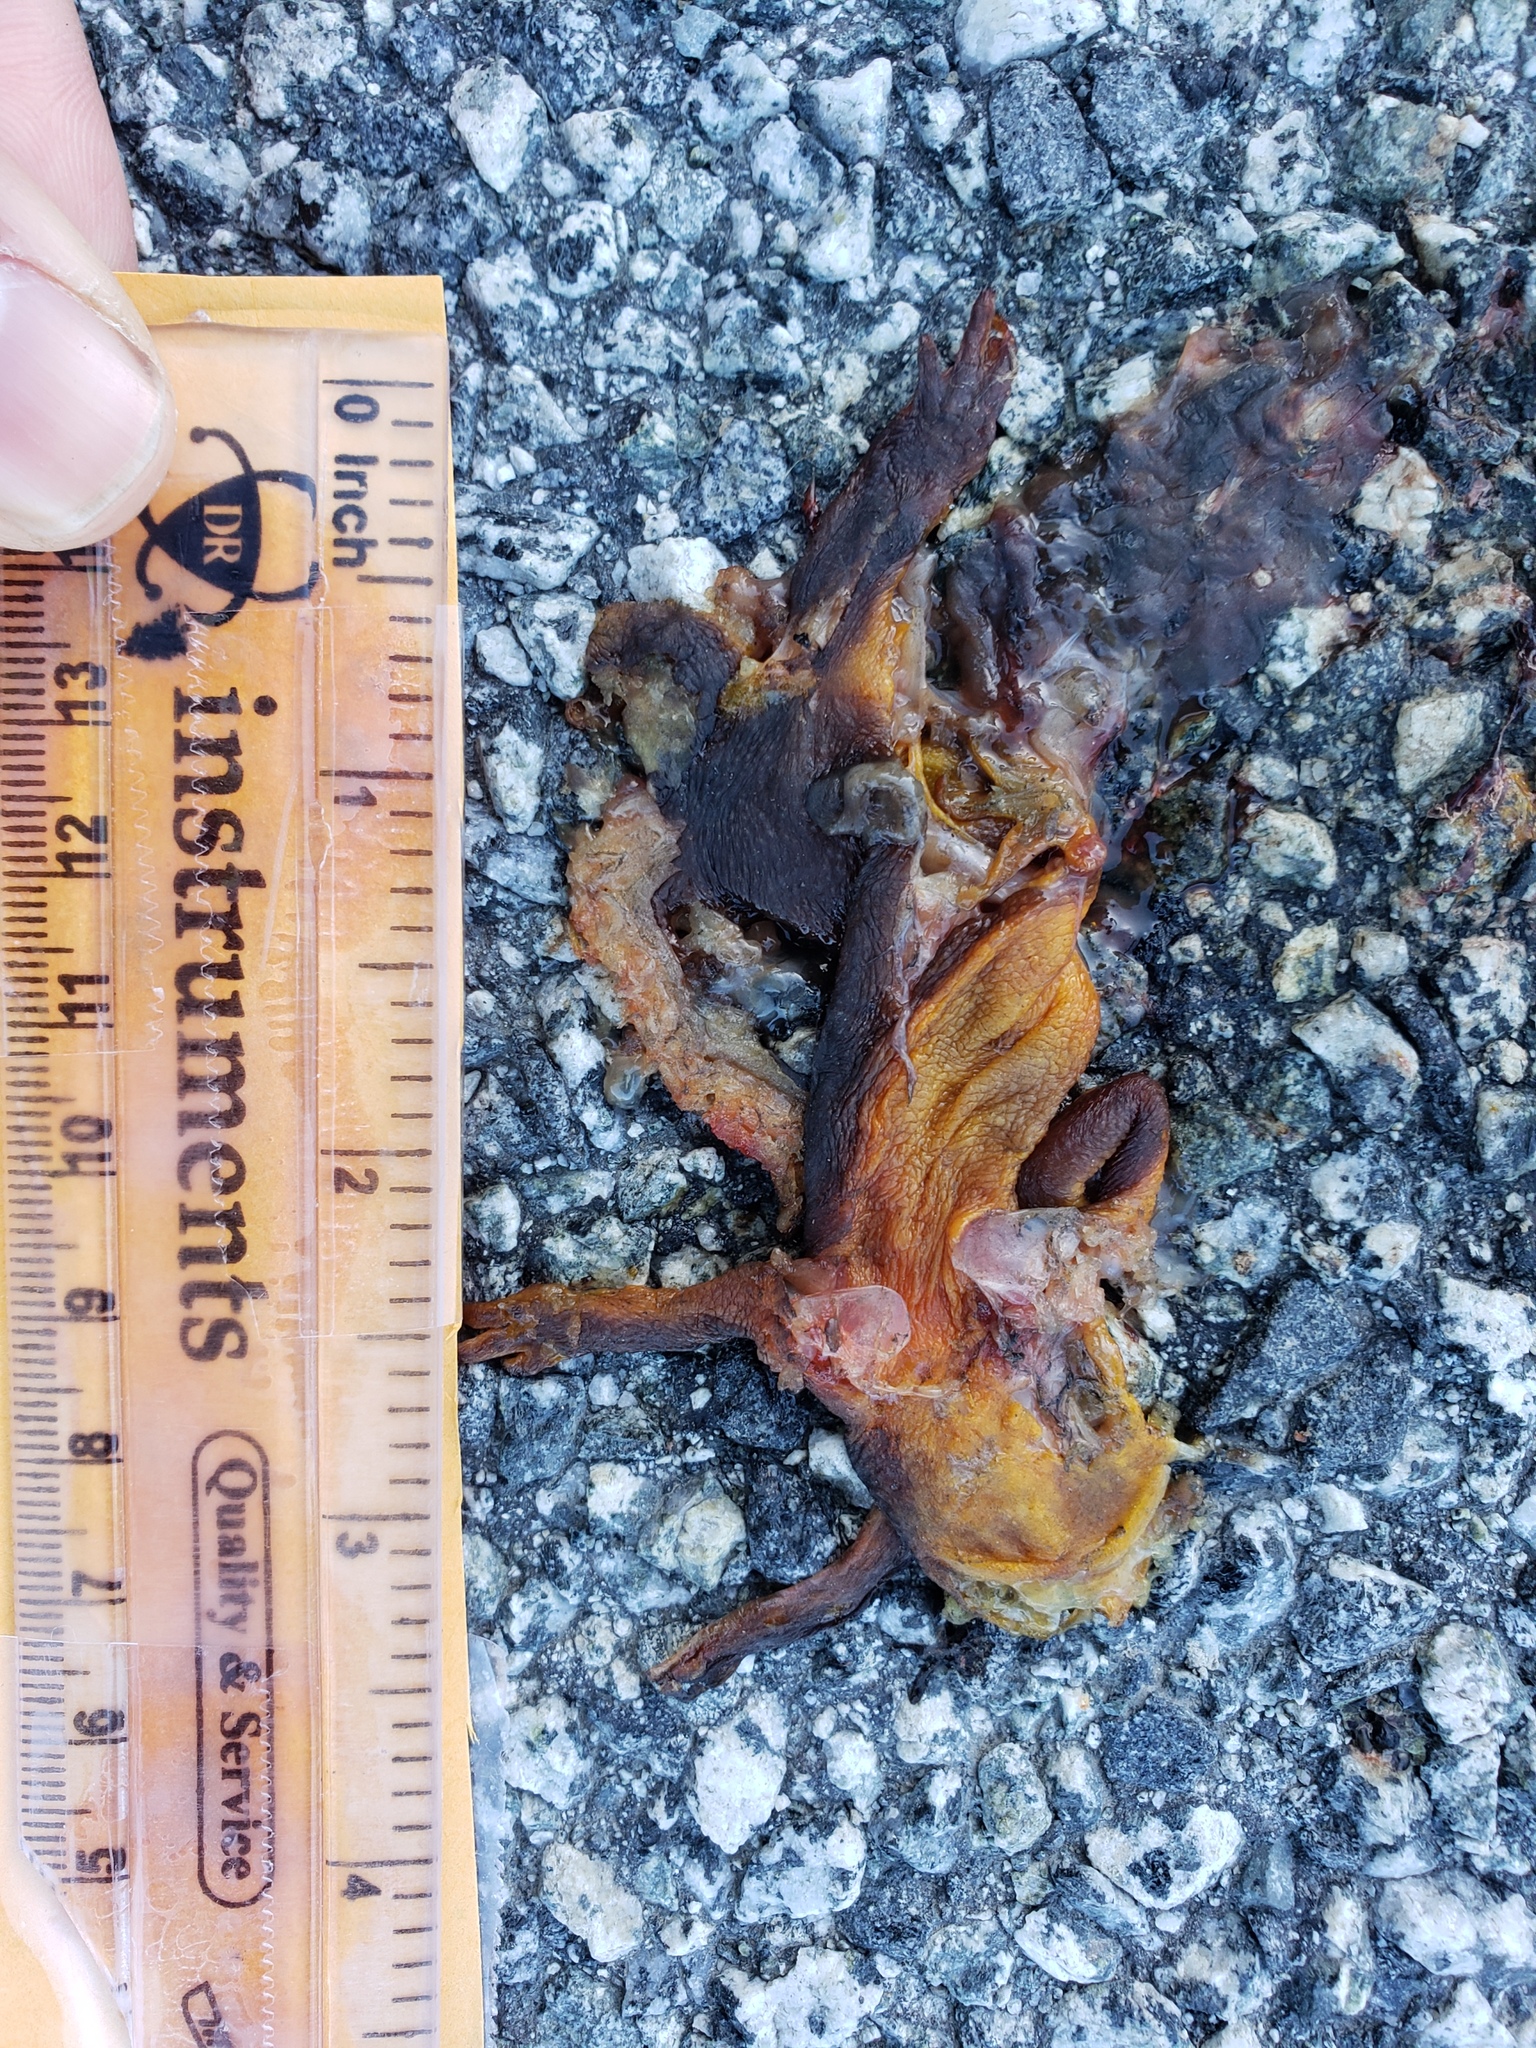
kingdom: Animalia
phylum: Chordata
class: Amphibia
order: Caudata
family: Salamandridae
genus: Taricha
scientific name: Taricha
